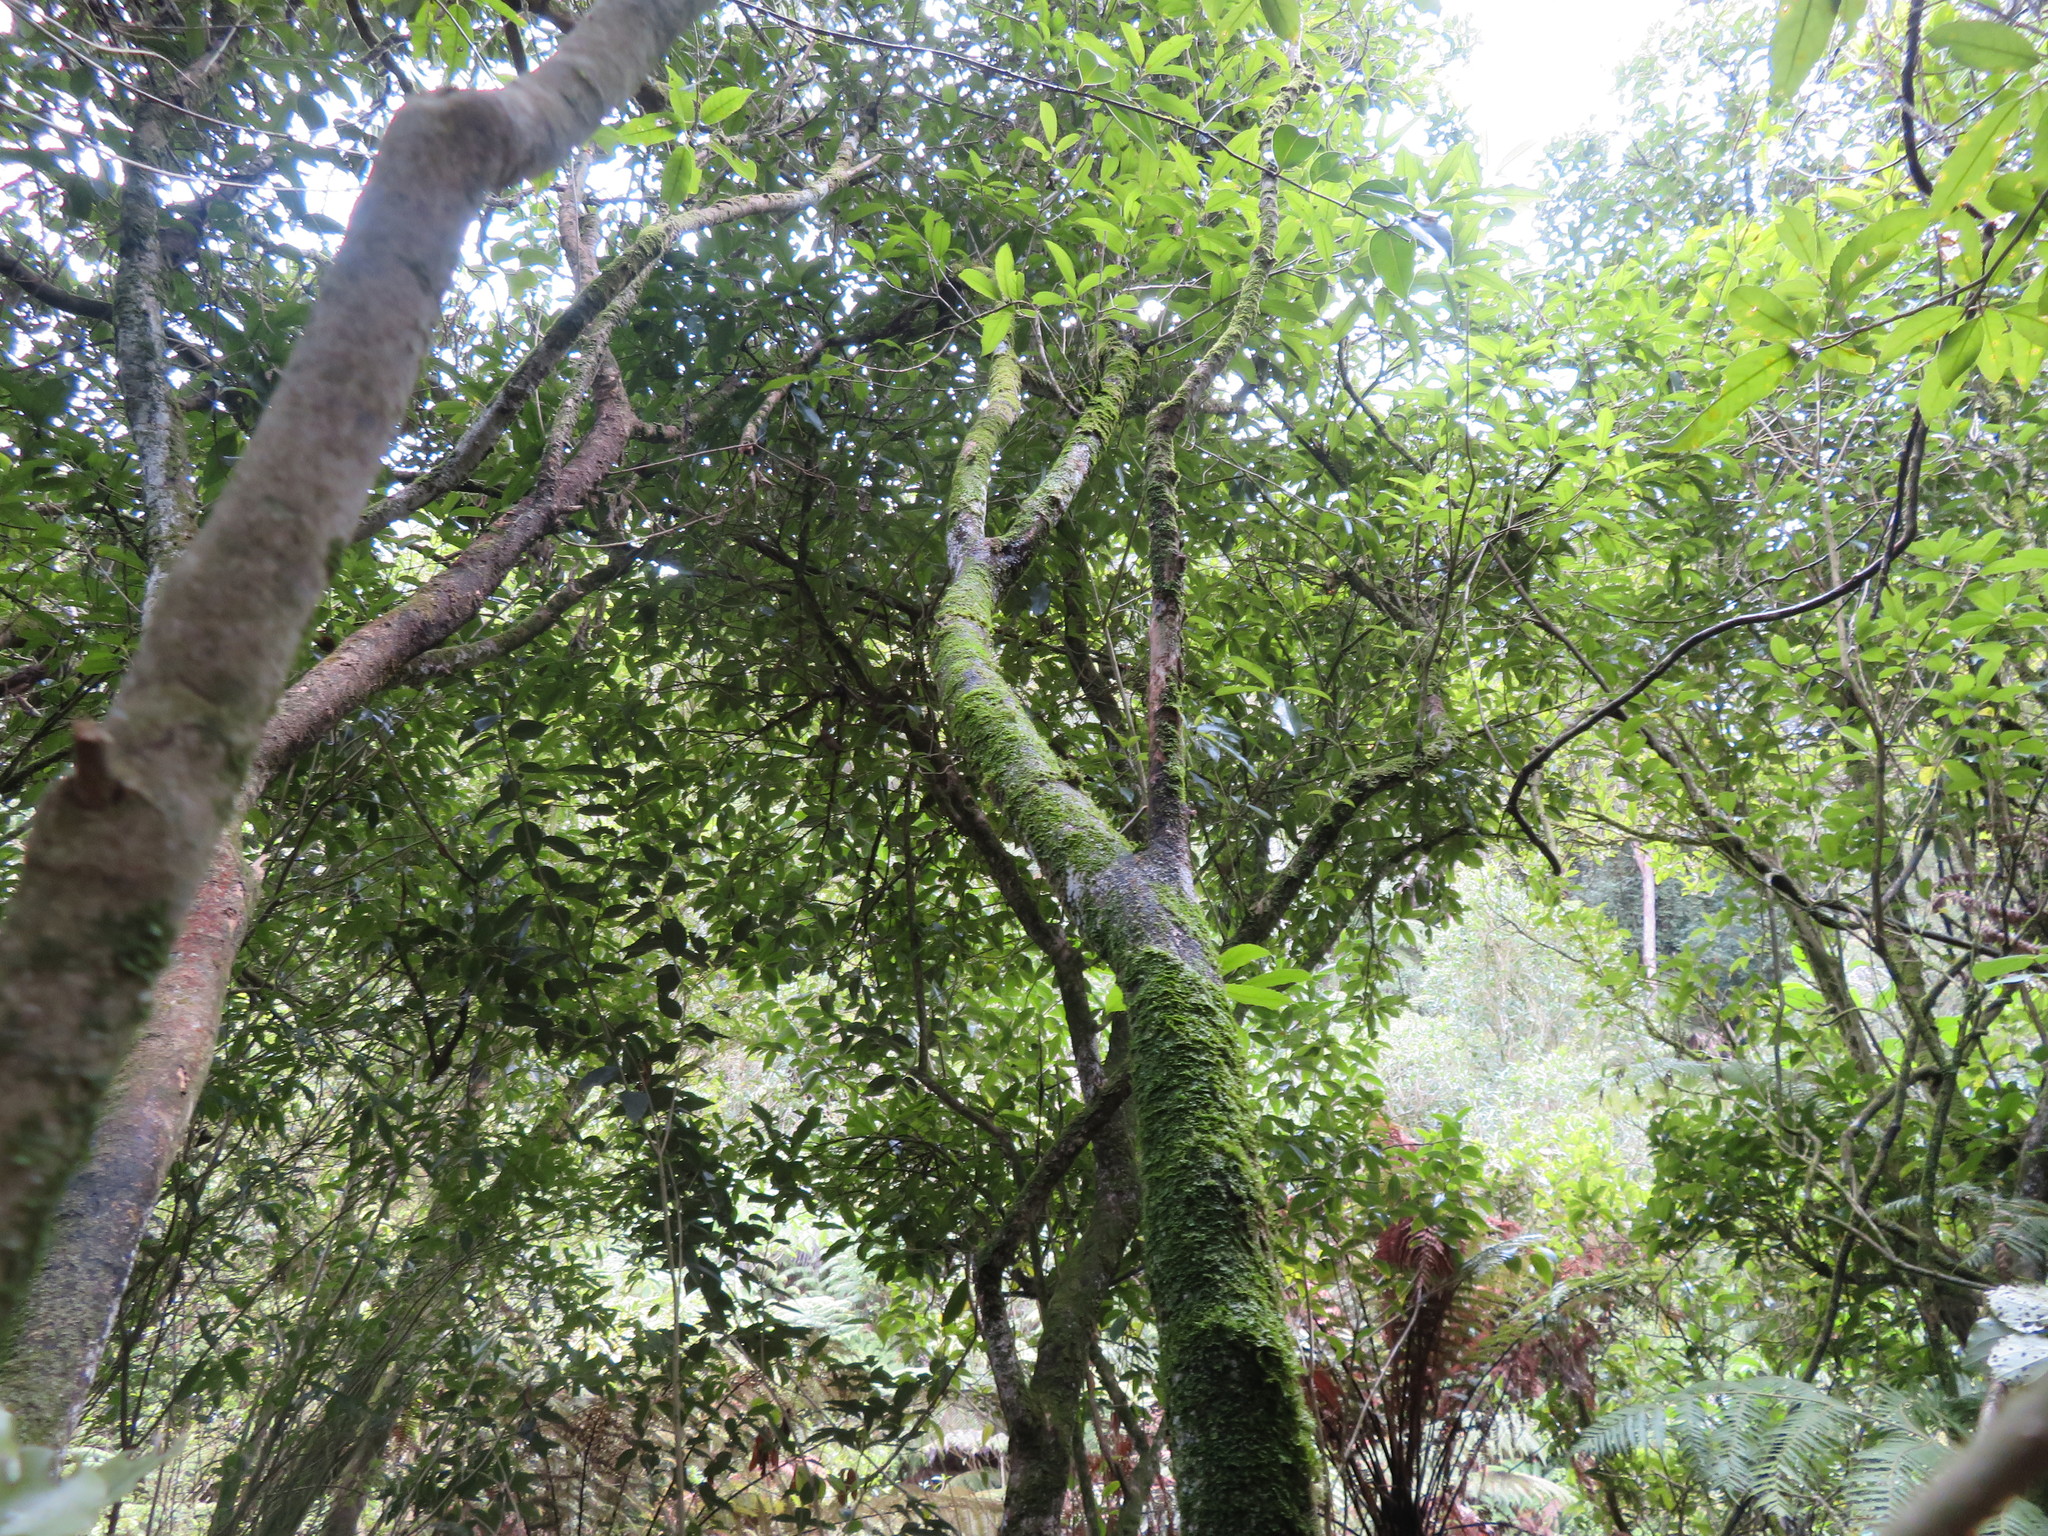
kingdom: Plantae
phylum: Tracheophyta
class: Magnoliopsida
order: Lamiales
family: Oleaceae
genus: Ligustrum
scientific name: Ligustrum lucidum
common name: Glossy privet
